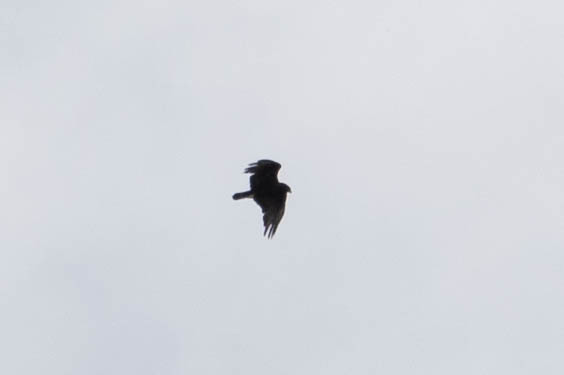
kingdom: Animalia
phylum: Chordata
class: Aves
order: Accipitriformes
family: Cathartidae
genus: Cathartes
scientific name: Cathartes aura
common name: Turkey vulture
